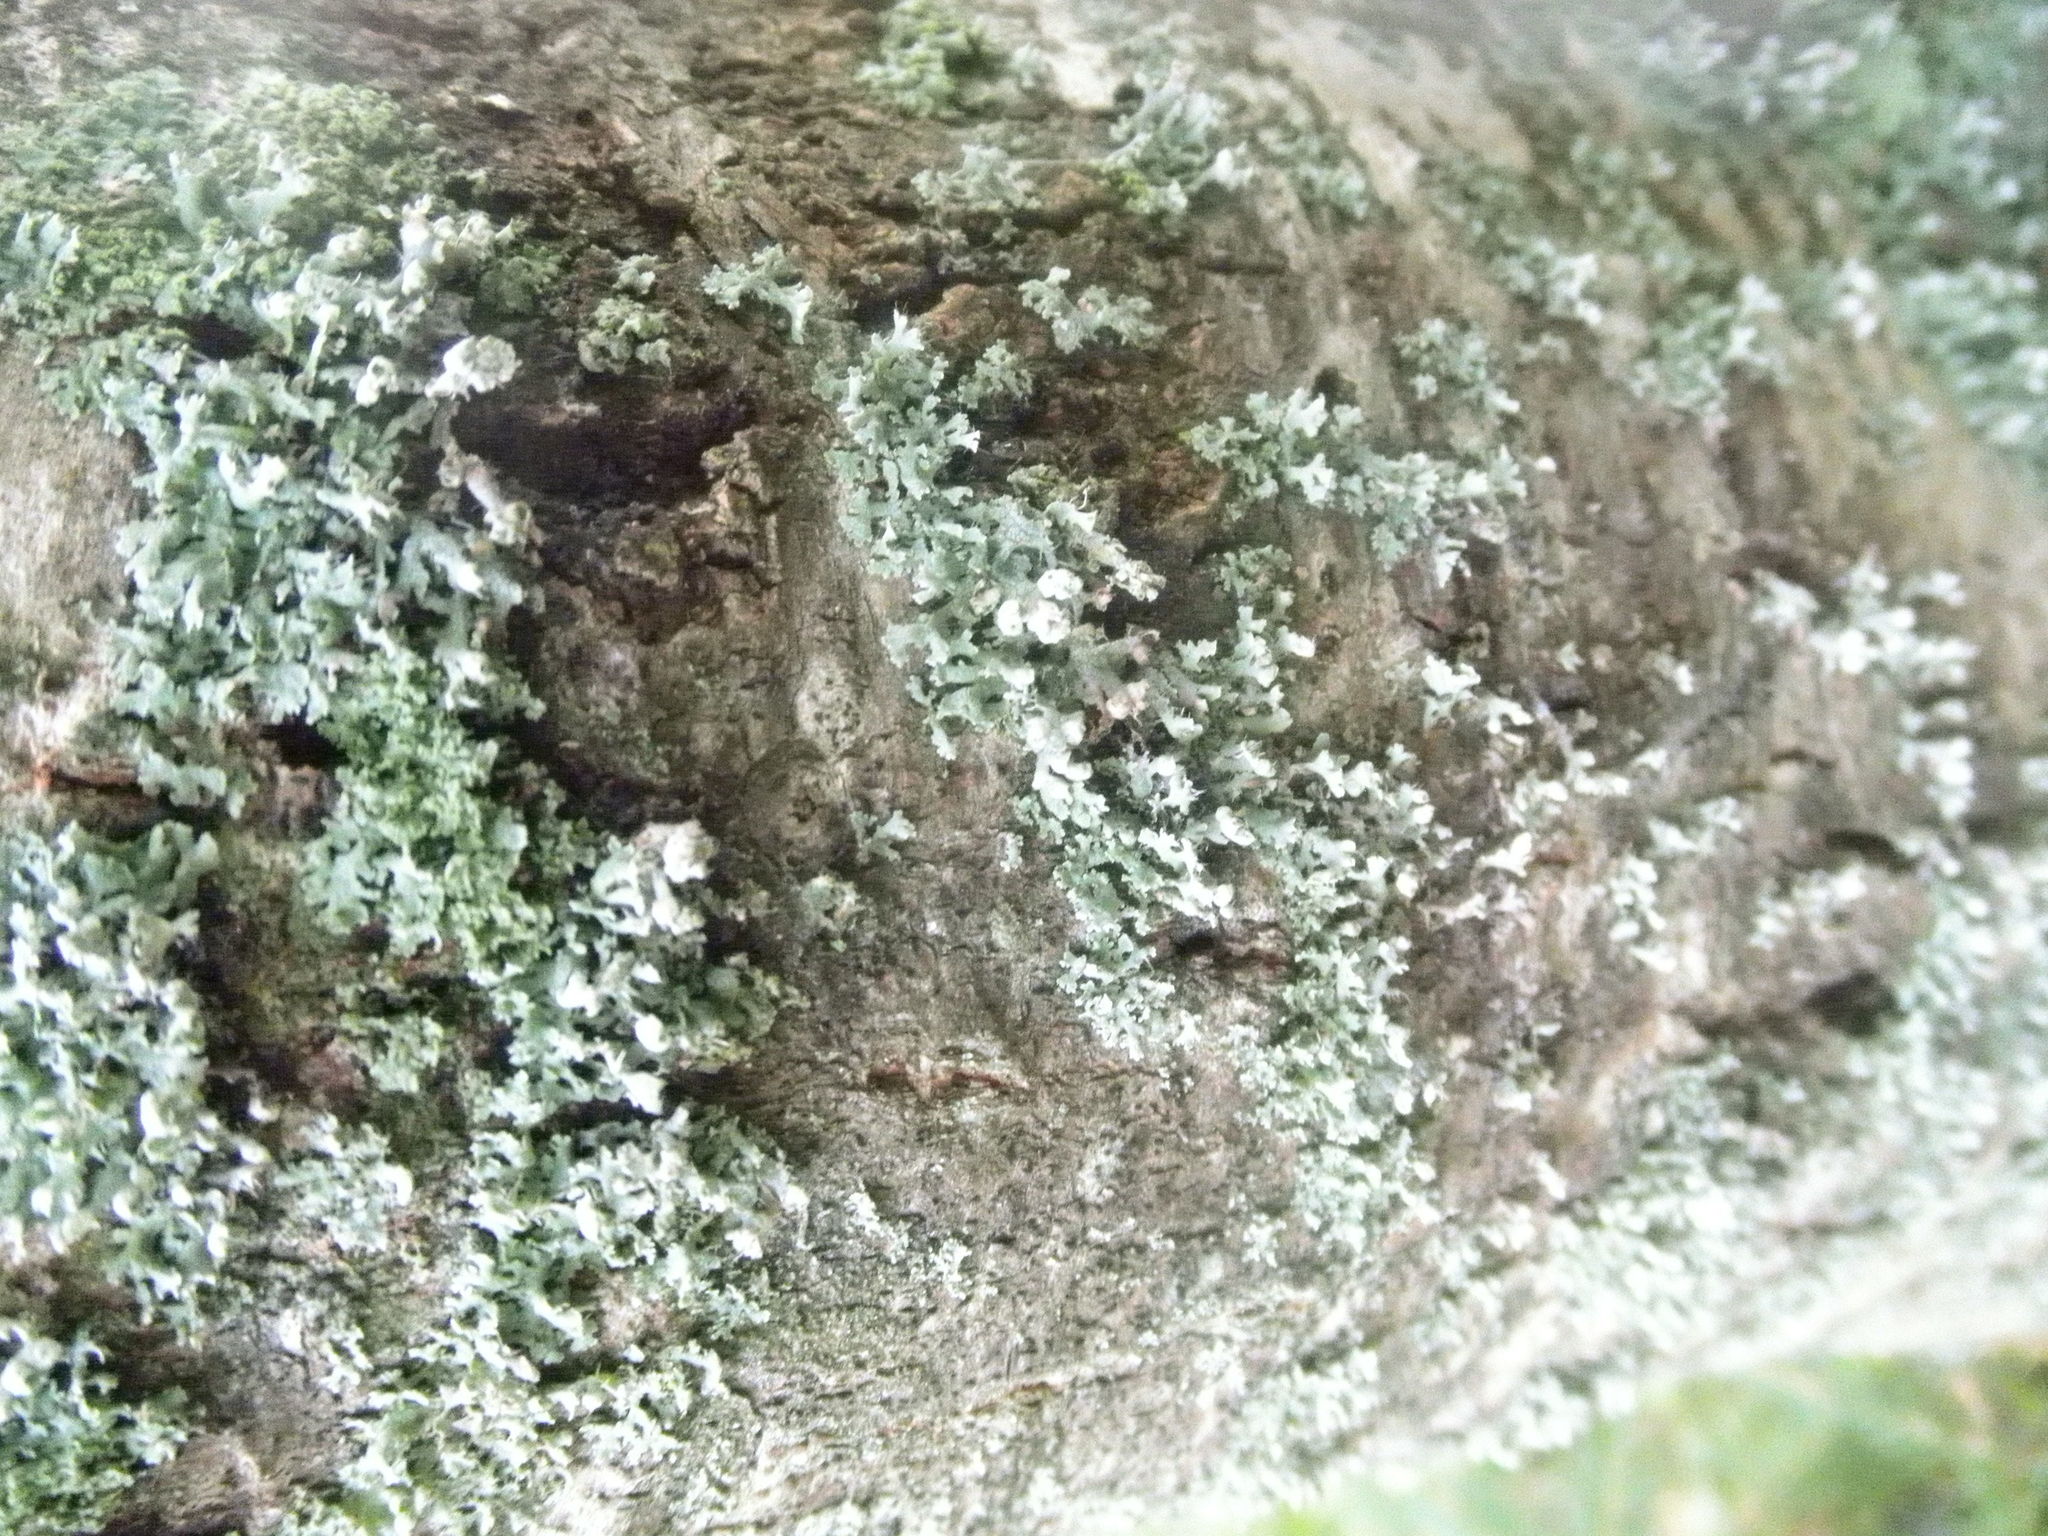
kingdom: Fungi
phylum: Ascomycota
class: Lecanoromycetes
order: Caliciales
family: Physciaceae
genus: Physcia
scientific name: Physcia adscendens
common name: Hooded rosette lichen
